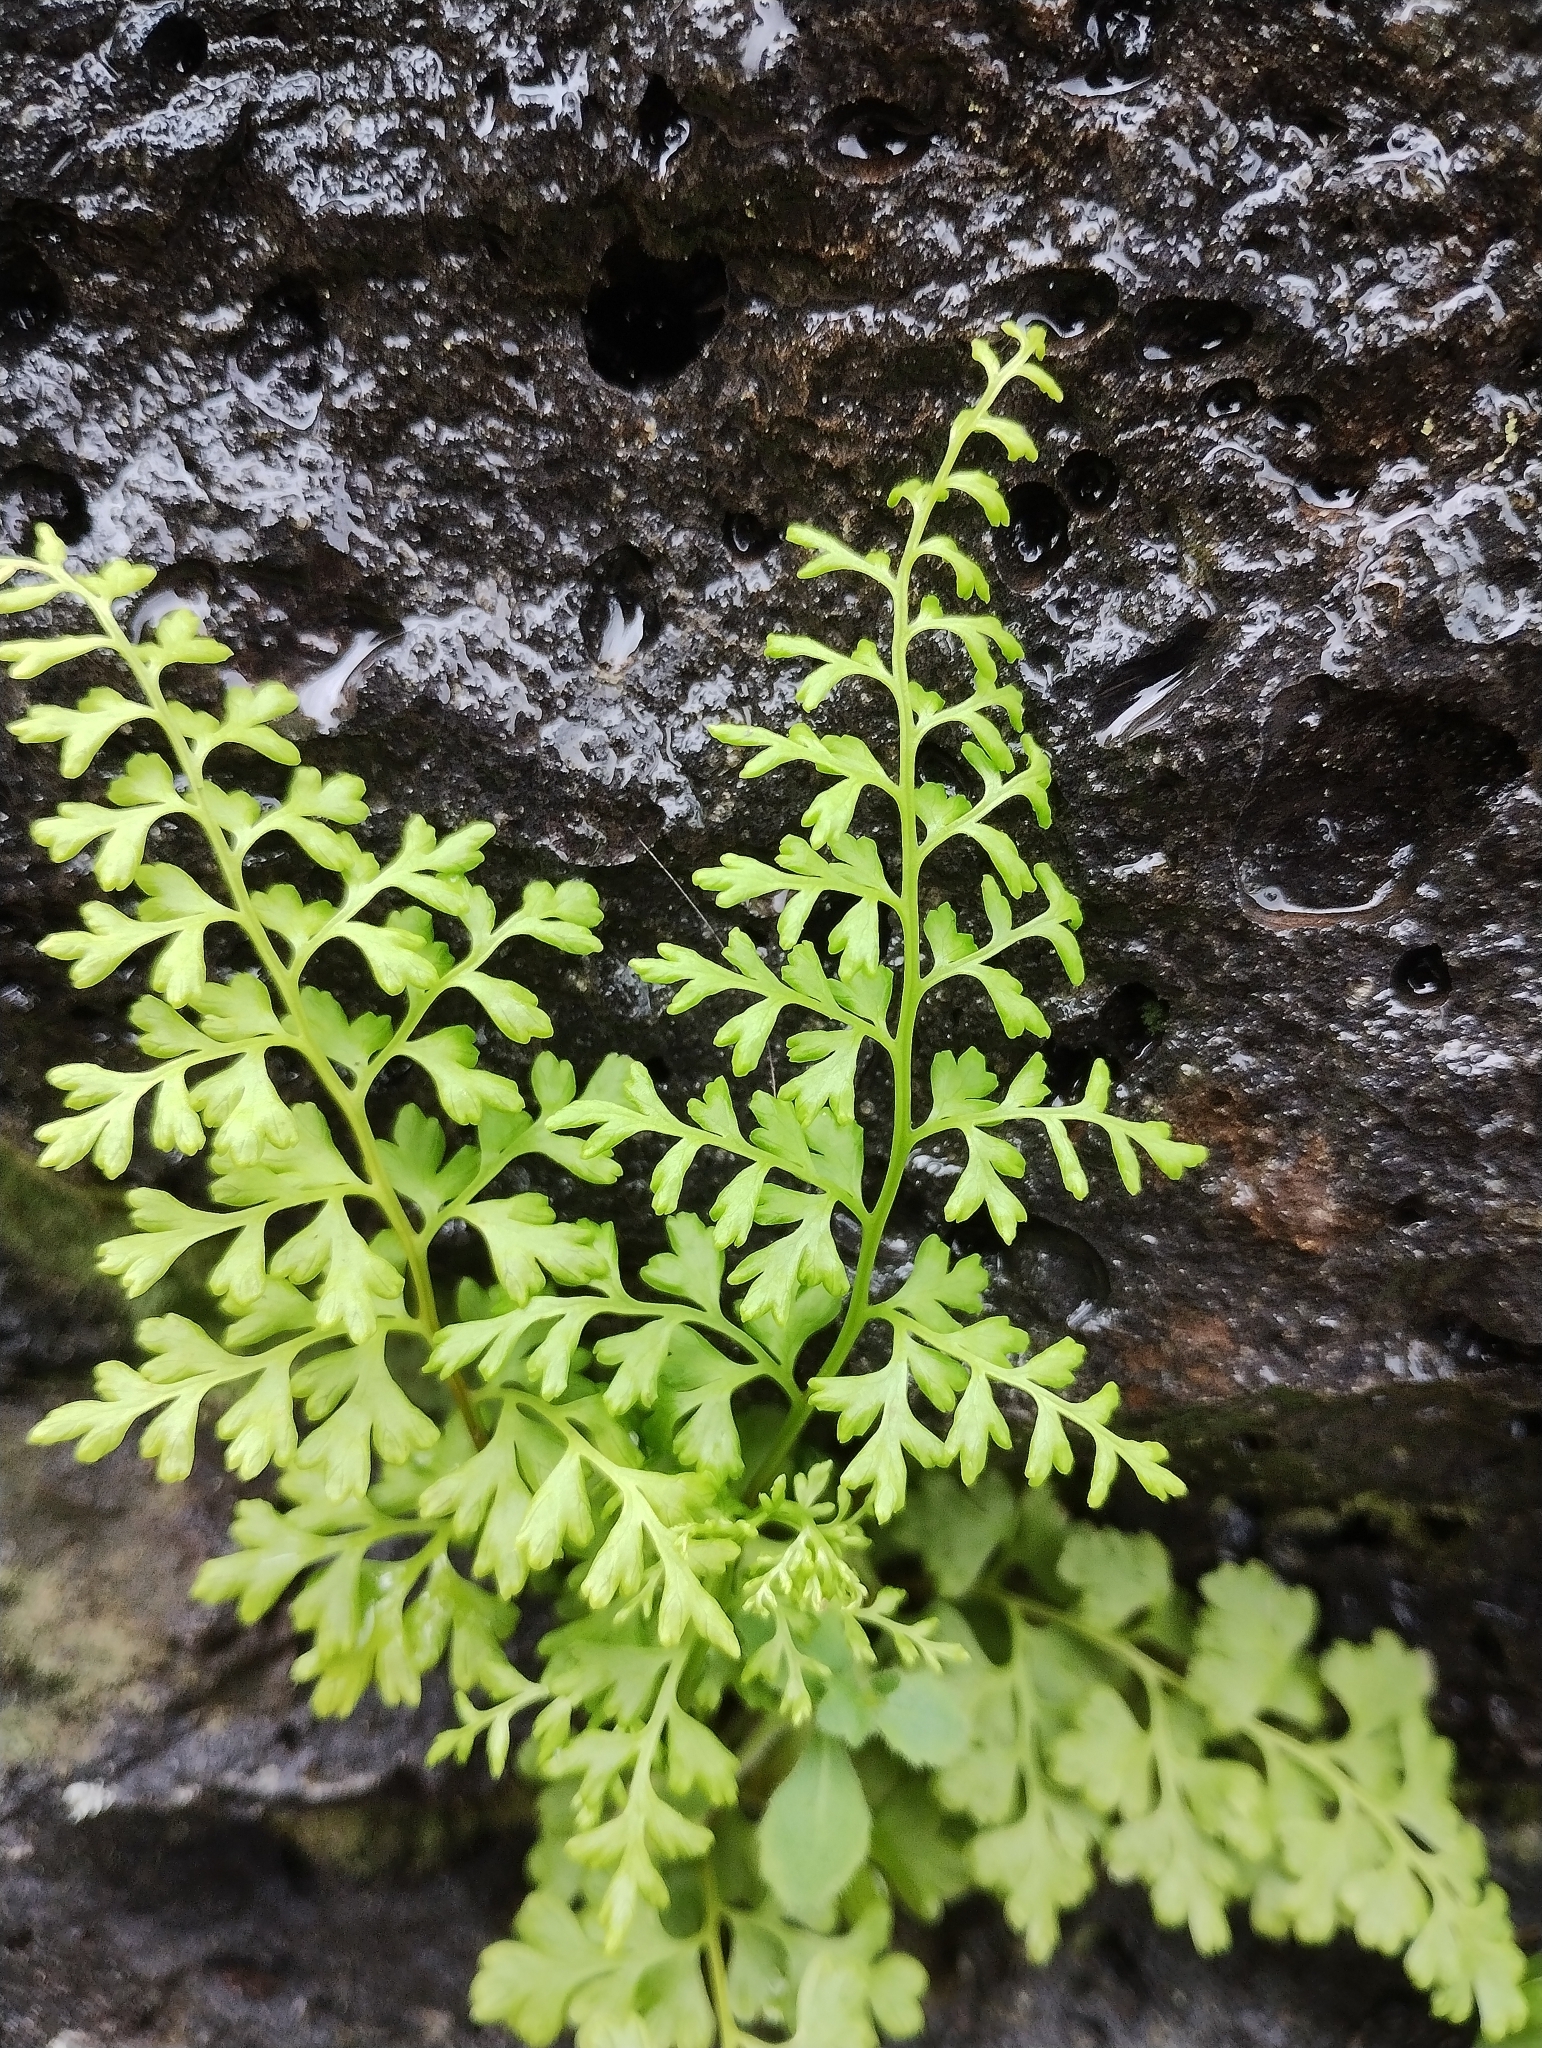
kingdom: Plantae
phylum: Tracheophyta
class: Polypodiopsida
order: Polypodiales
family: Pteridaceae
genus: Anogramma
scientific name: Anogramma leptophylla
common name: Jersey fern
